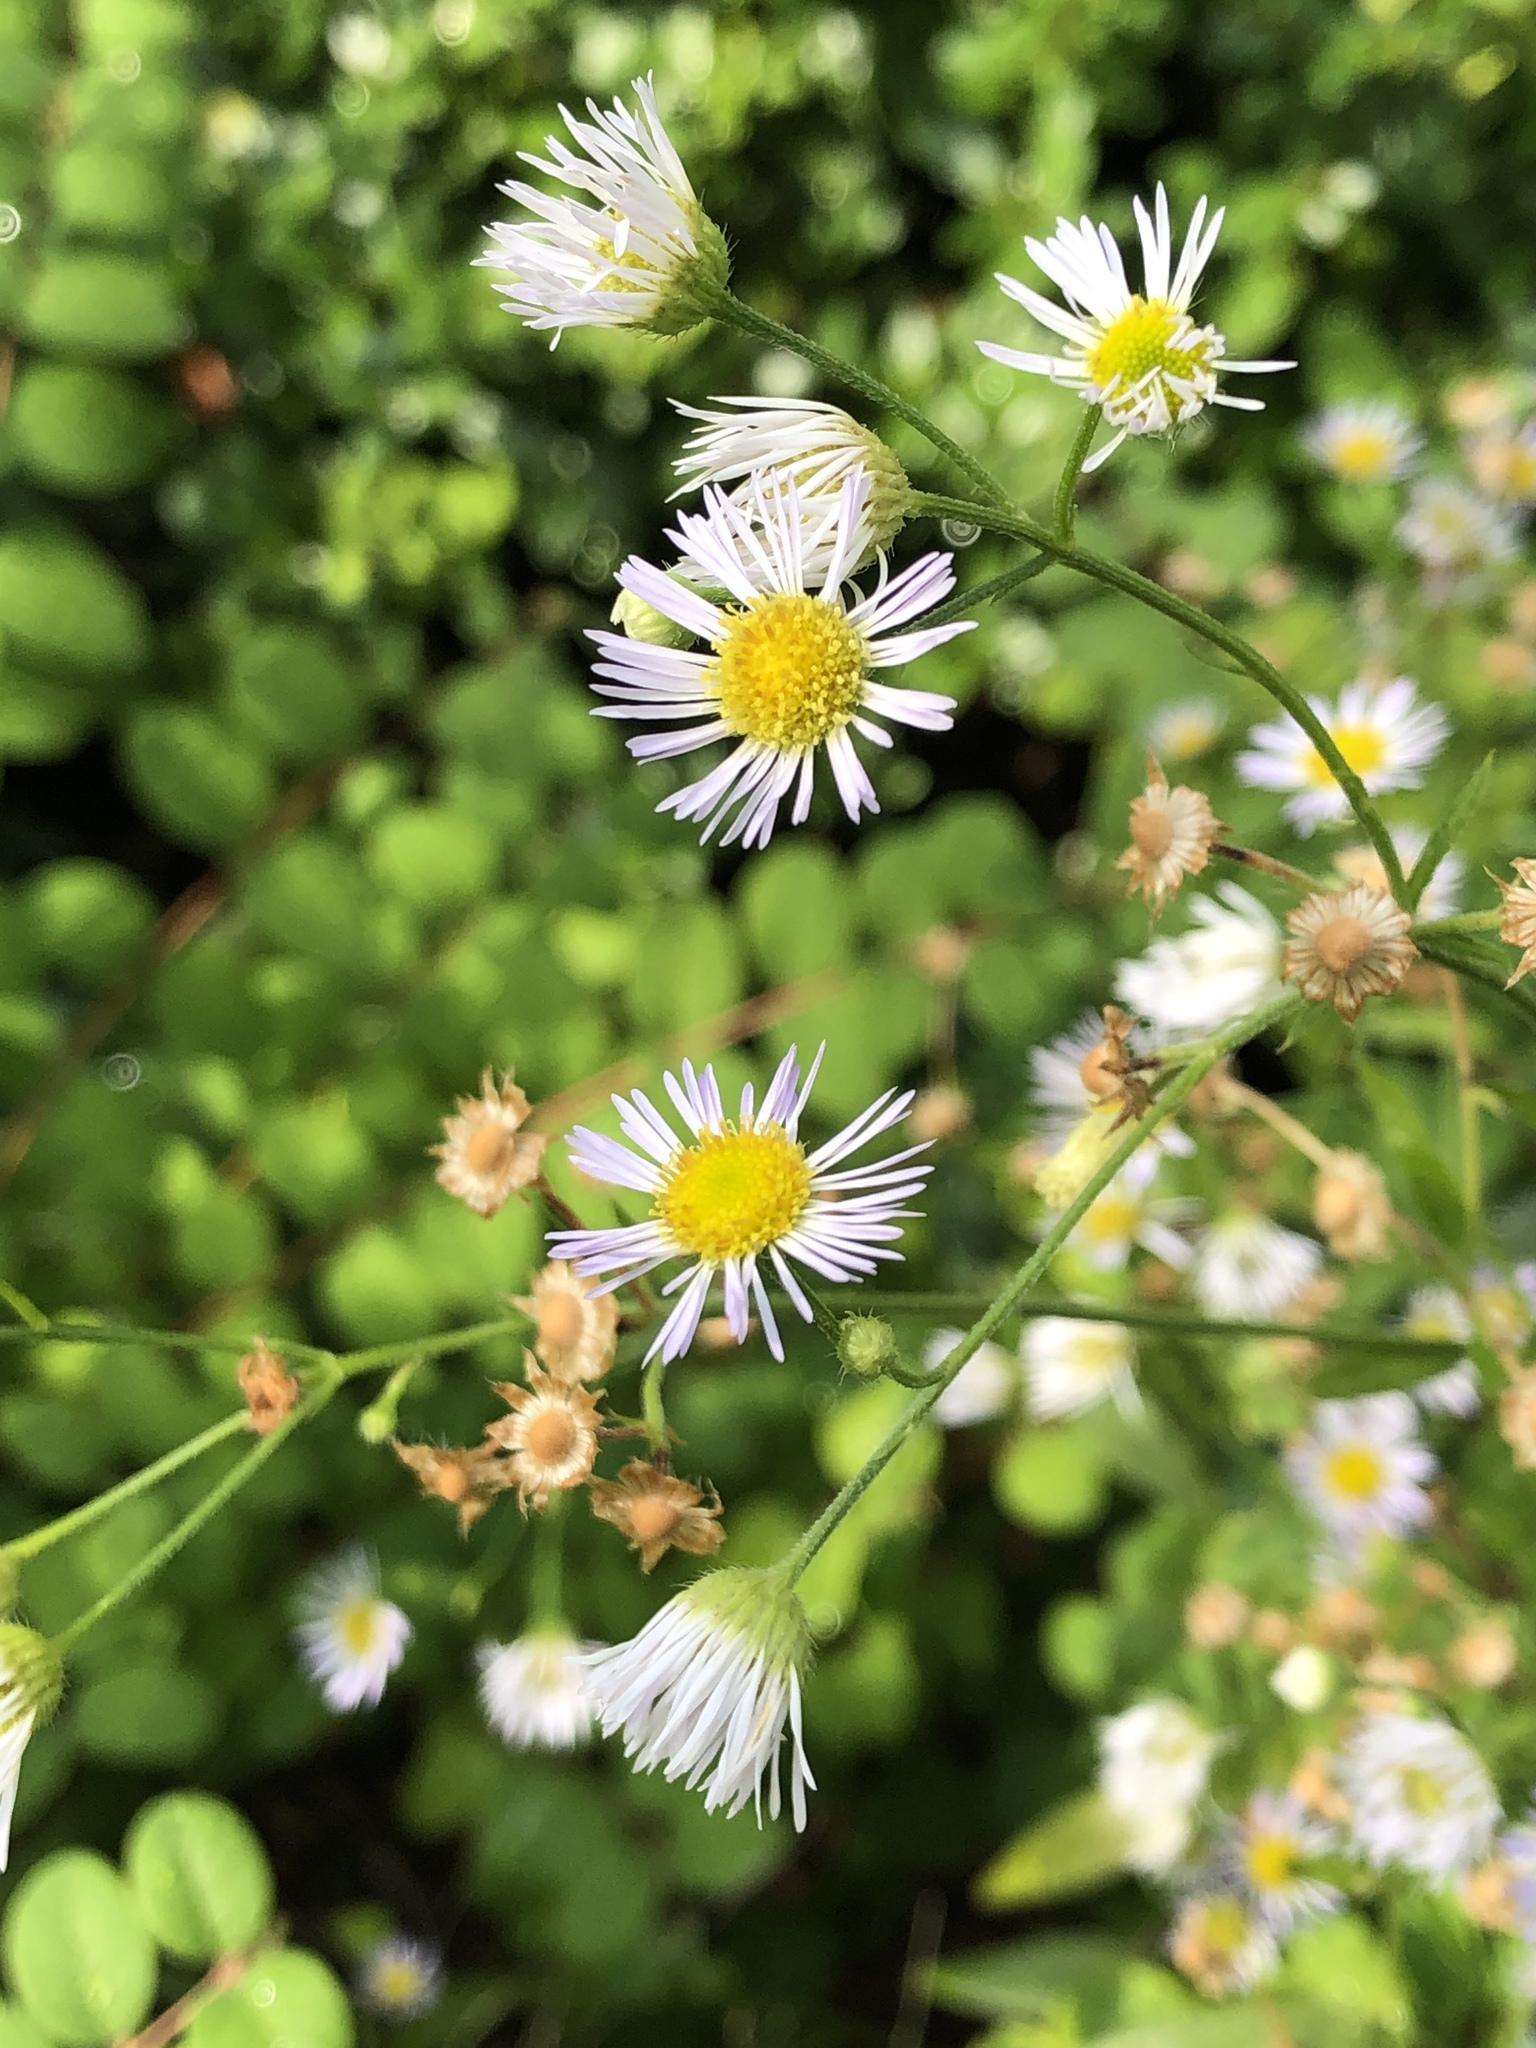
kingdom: Plantae
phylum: Tracheophyta
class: Magnoliopsida
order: Asterales
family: Asteraceae
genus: Erigeron
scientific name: Erigeron annuus
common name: Tall fleabane
